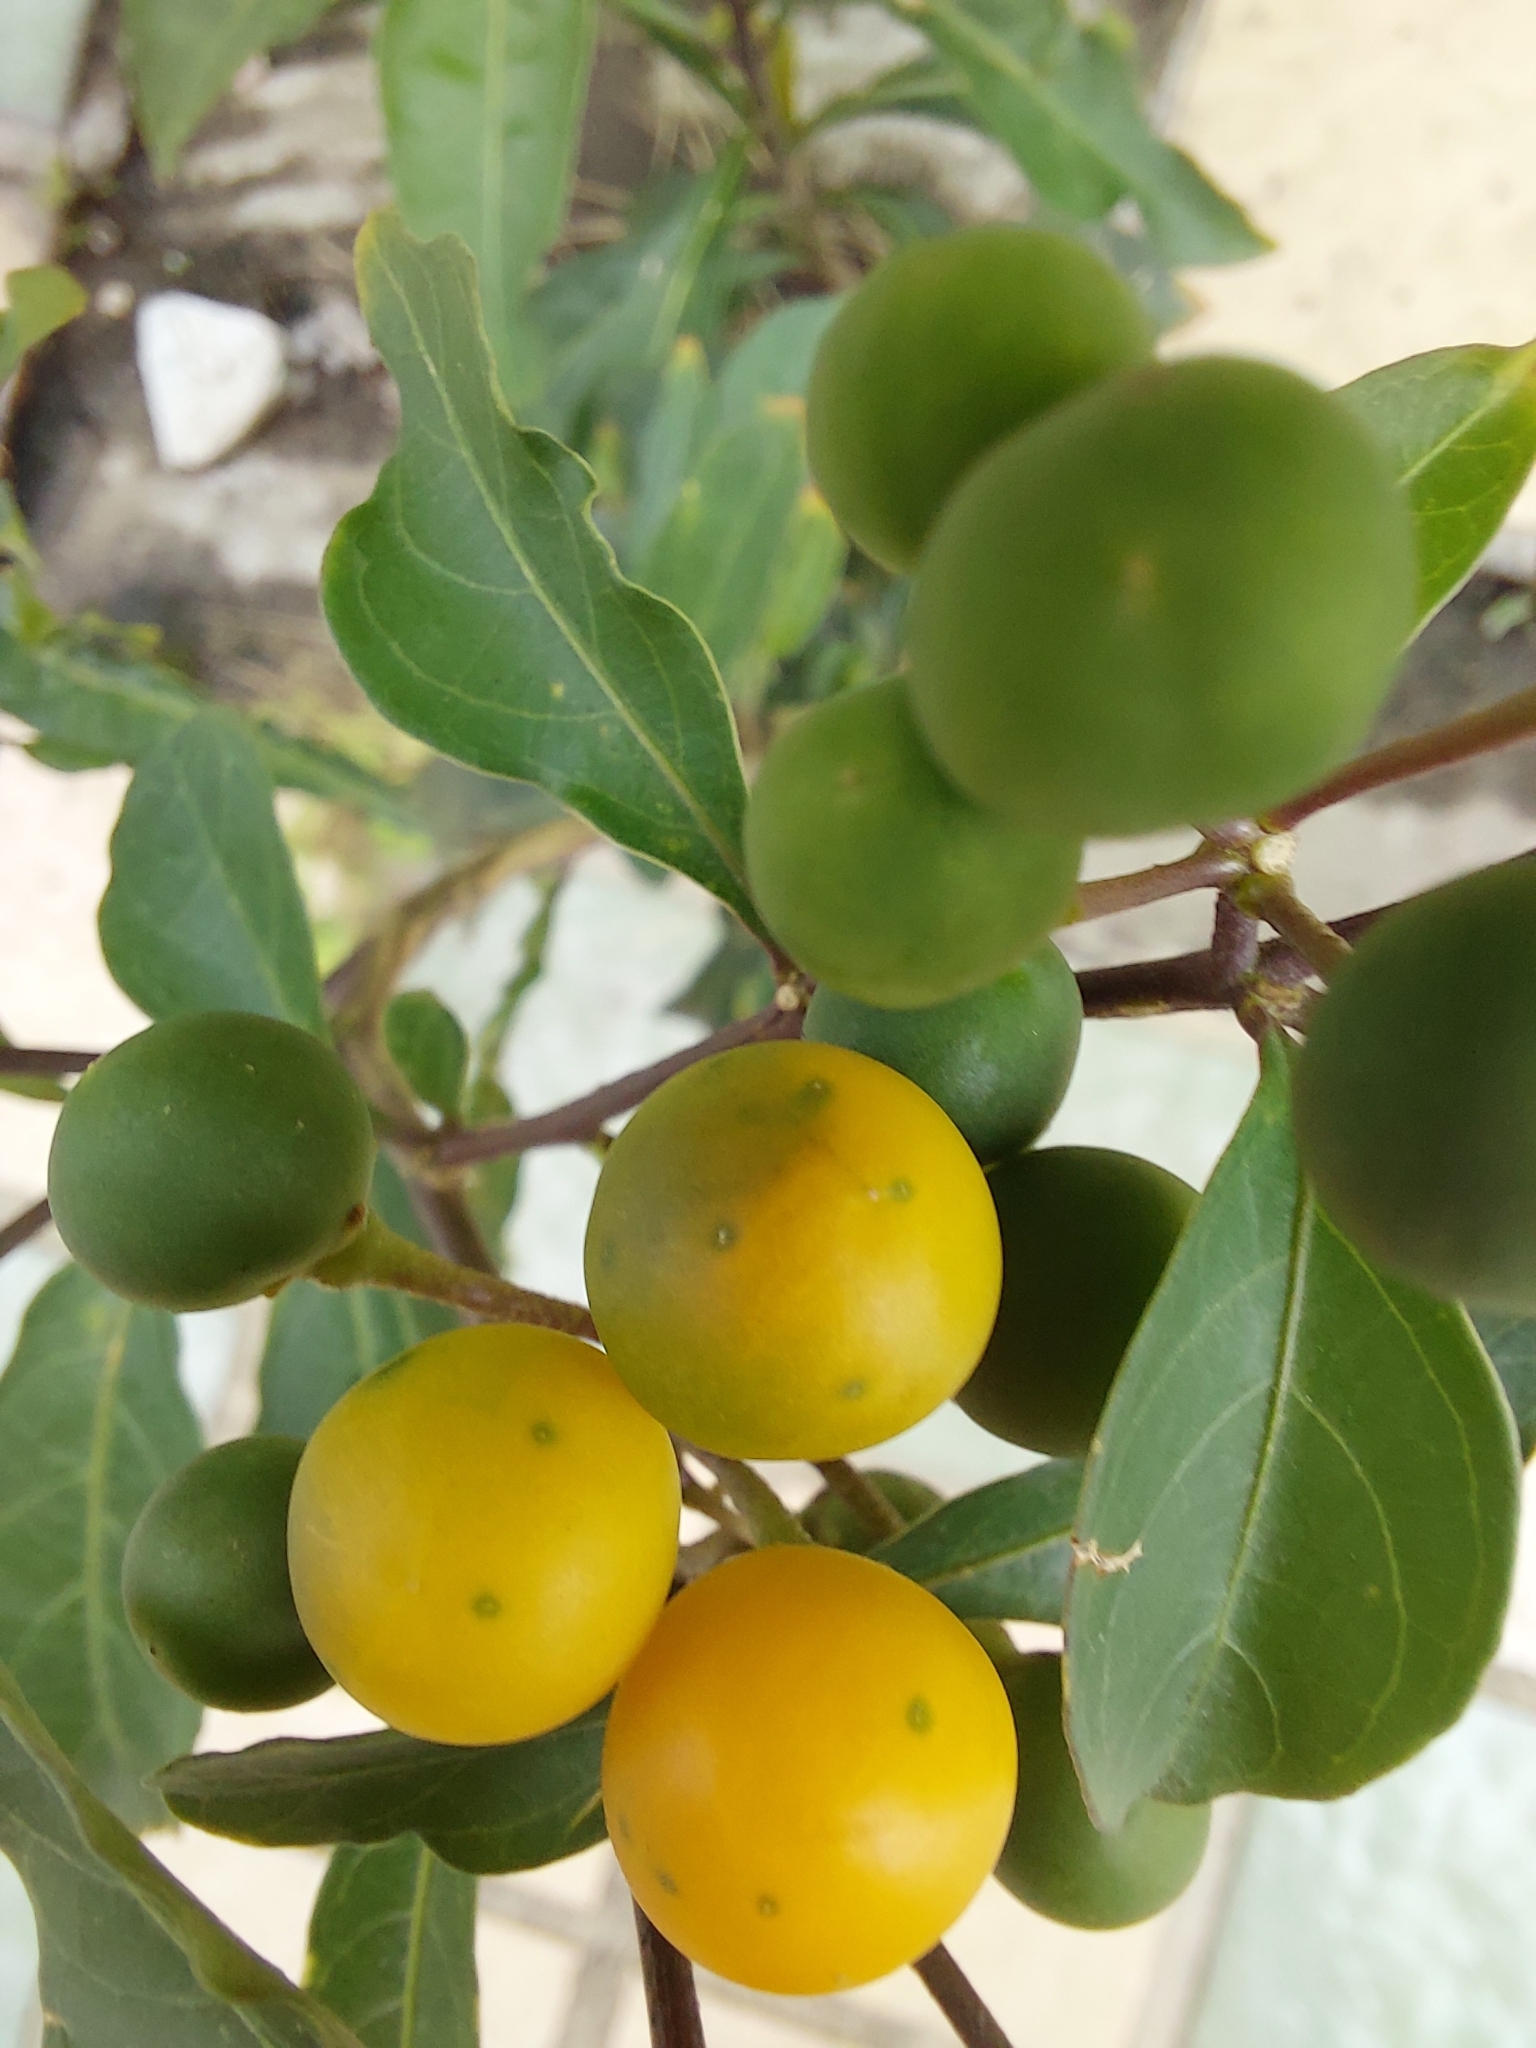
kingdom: Plantae
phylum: Tracheophyta
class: Magnoliopsida
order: Solanales
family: Solanaceae
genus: Solanum
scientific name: Solanum diphyllum
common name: Twoleaf nightshade
